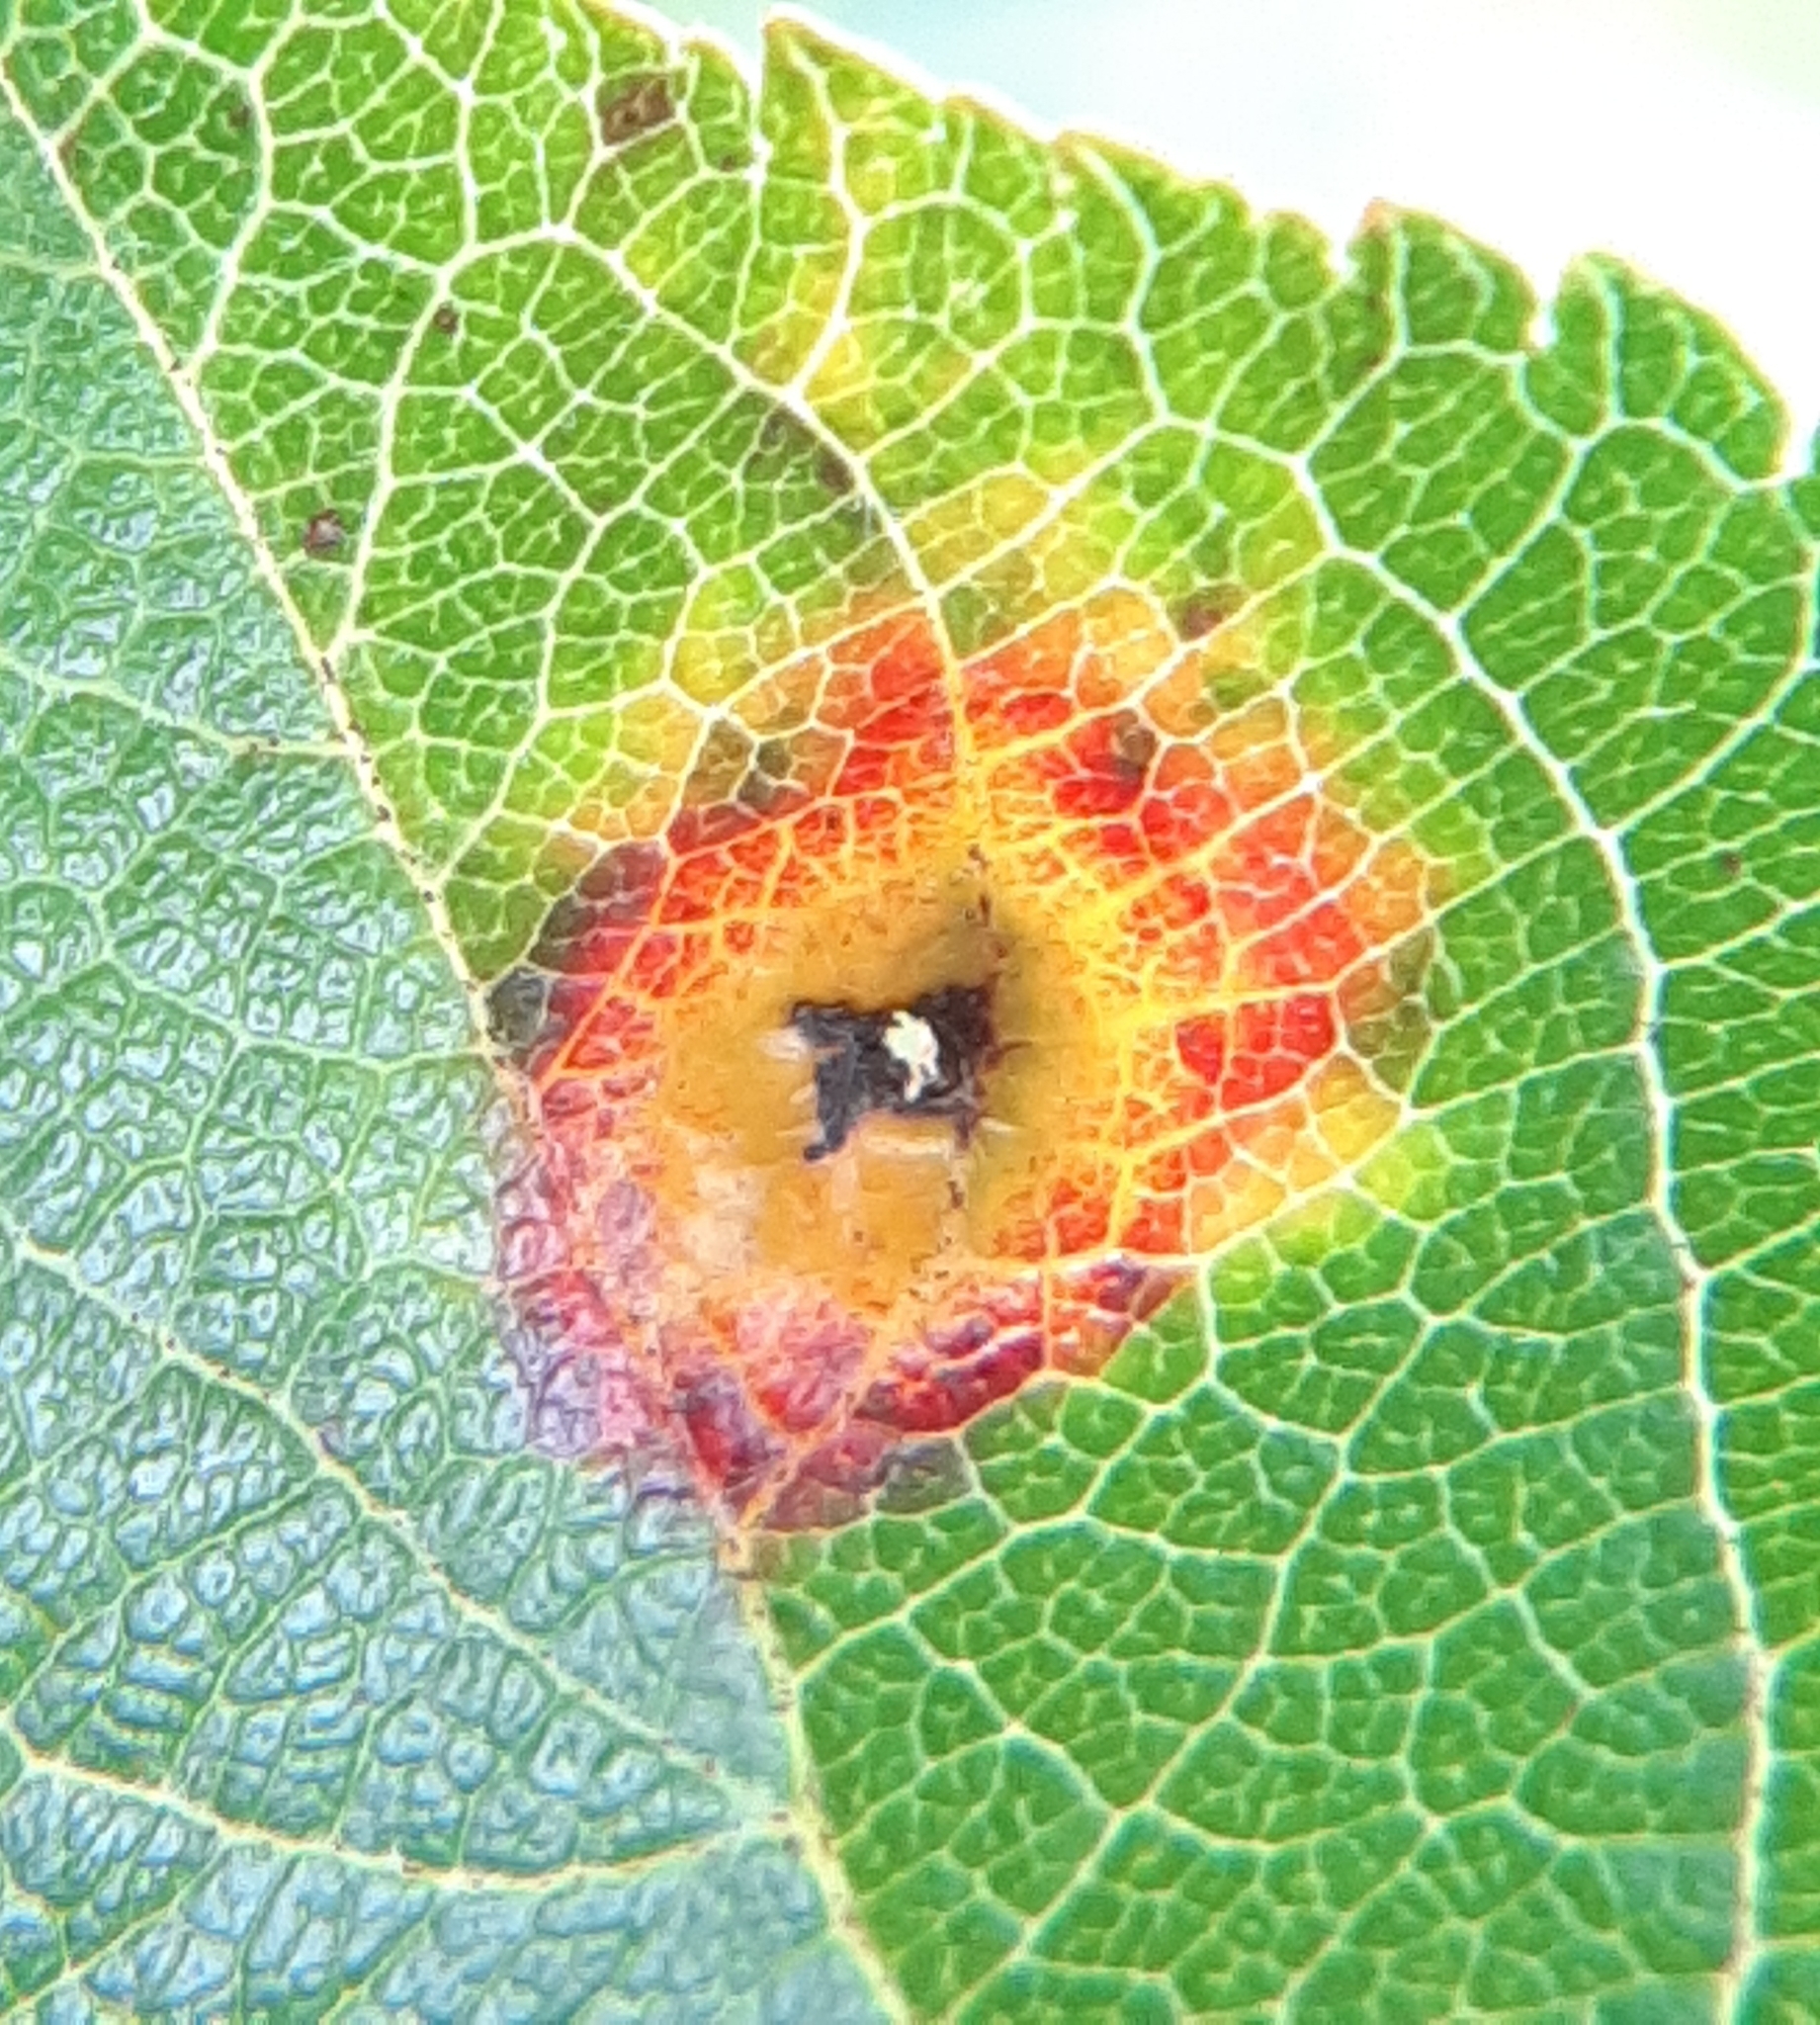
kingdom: Fungi
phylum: Basidiomycota
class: Pucciniomycetes
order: Pucciniales
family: Gymnosporangiaceae
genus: Gymnosporangium
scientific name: Gymnosporangium juniperi-virginianae
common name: Juniper-apple rust
